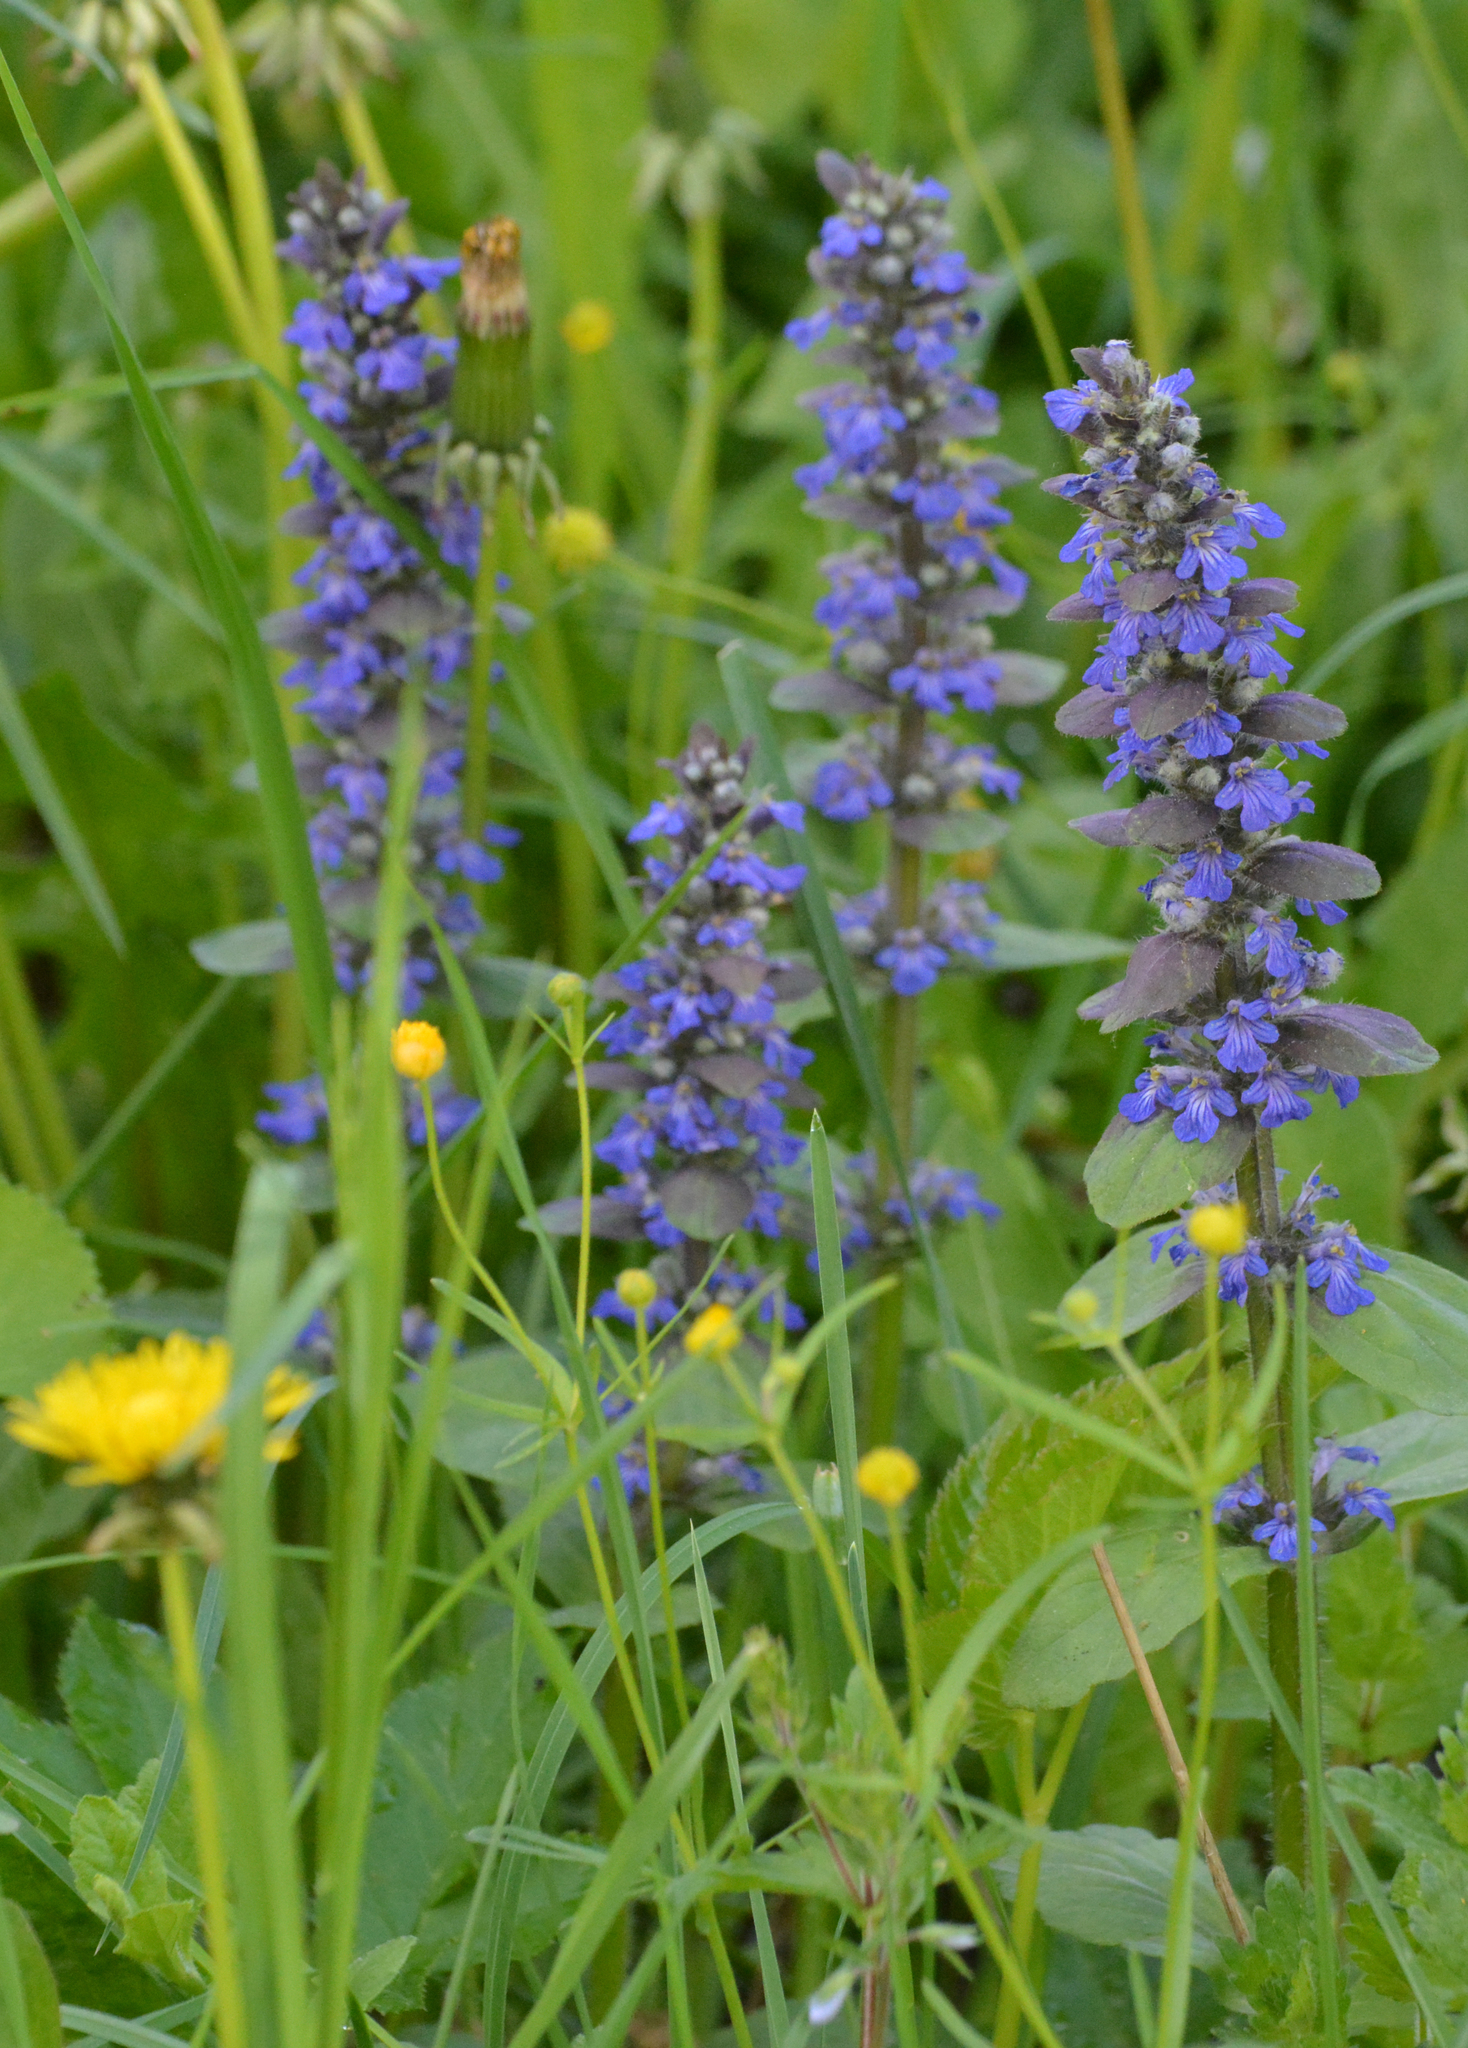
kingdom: Plantae
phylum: Tracheophyta
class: Magnoliopsida
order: Lamiales
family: Lamiaceae
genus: Ajuga
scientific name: Ajuga reptans
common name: Bugle
